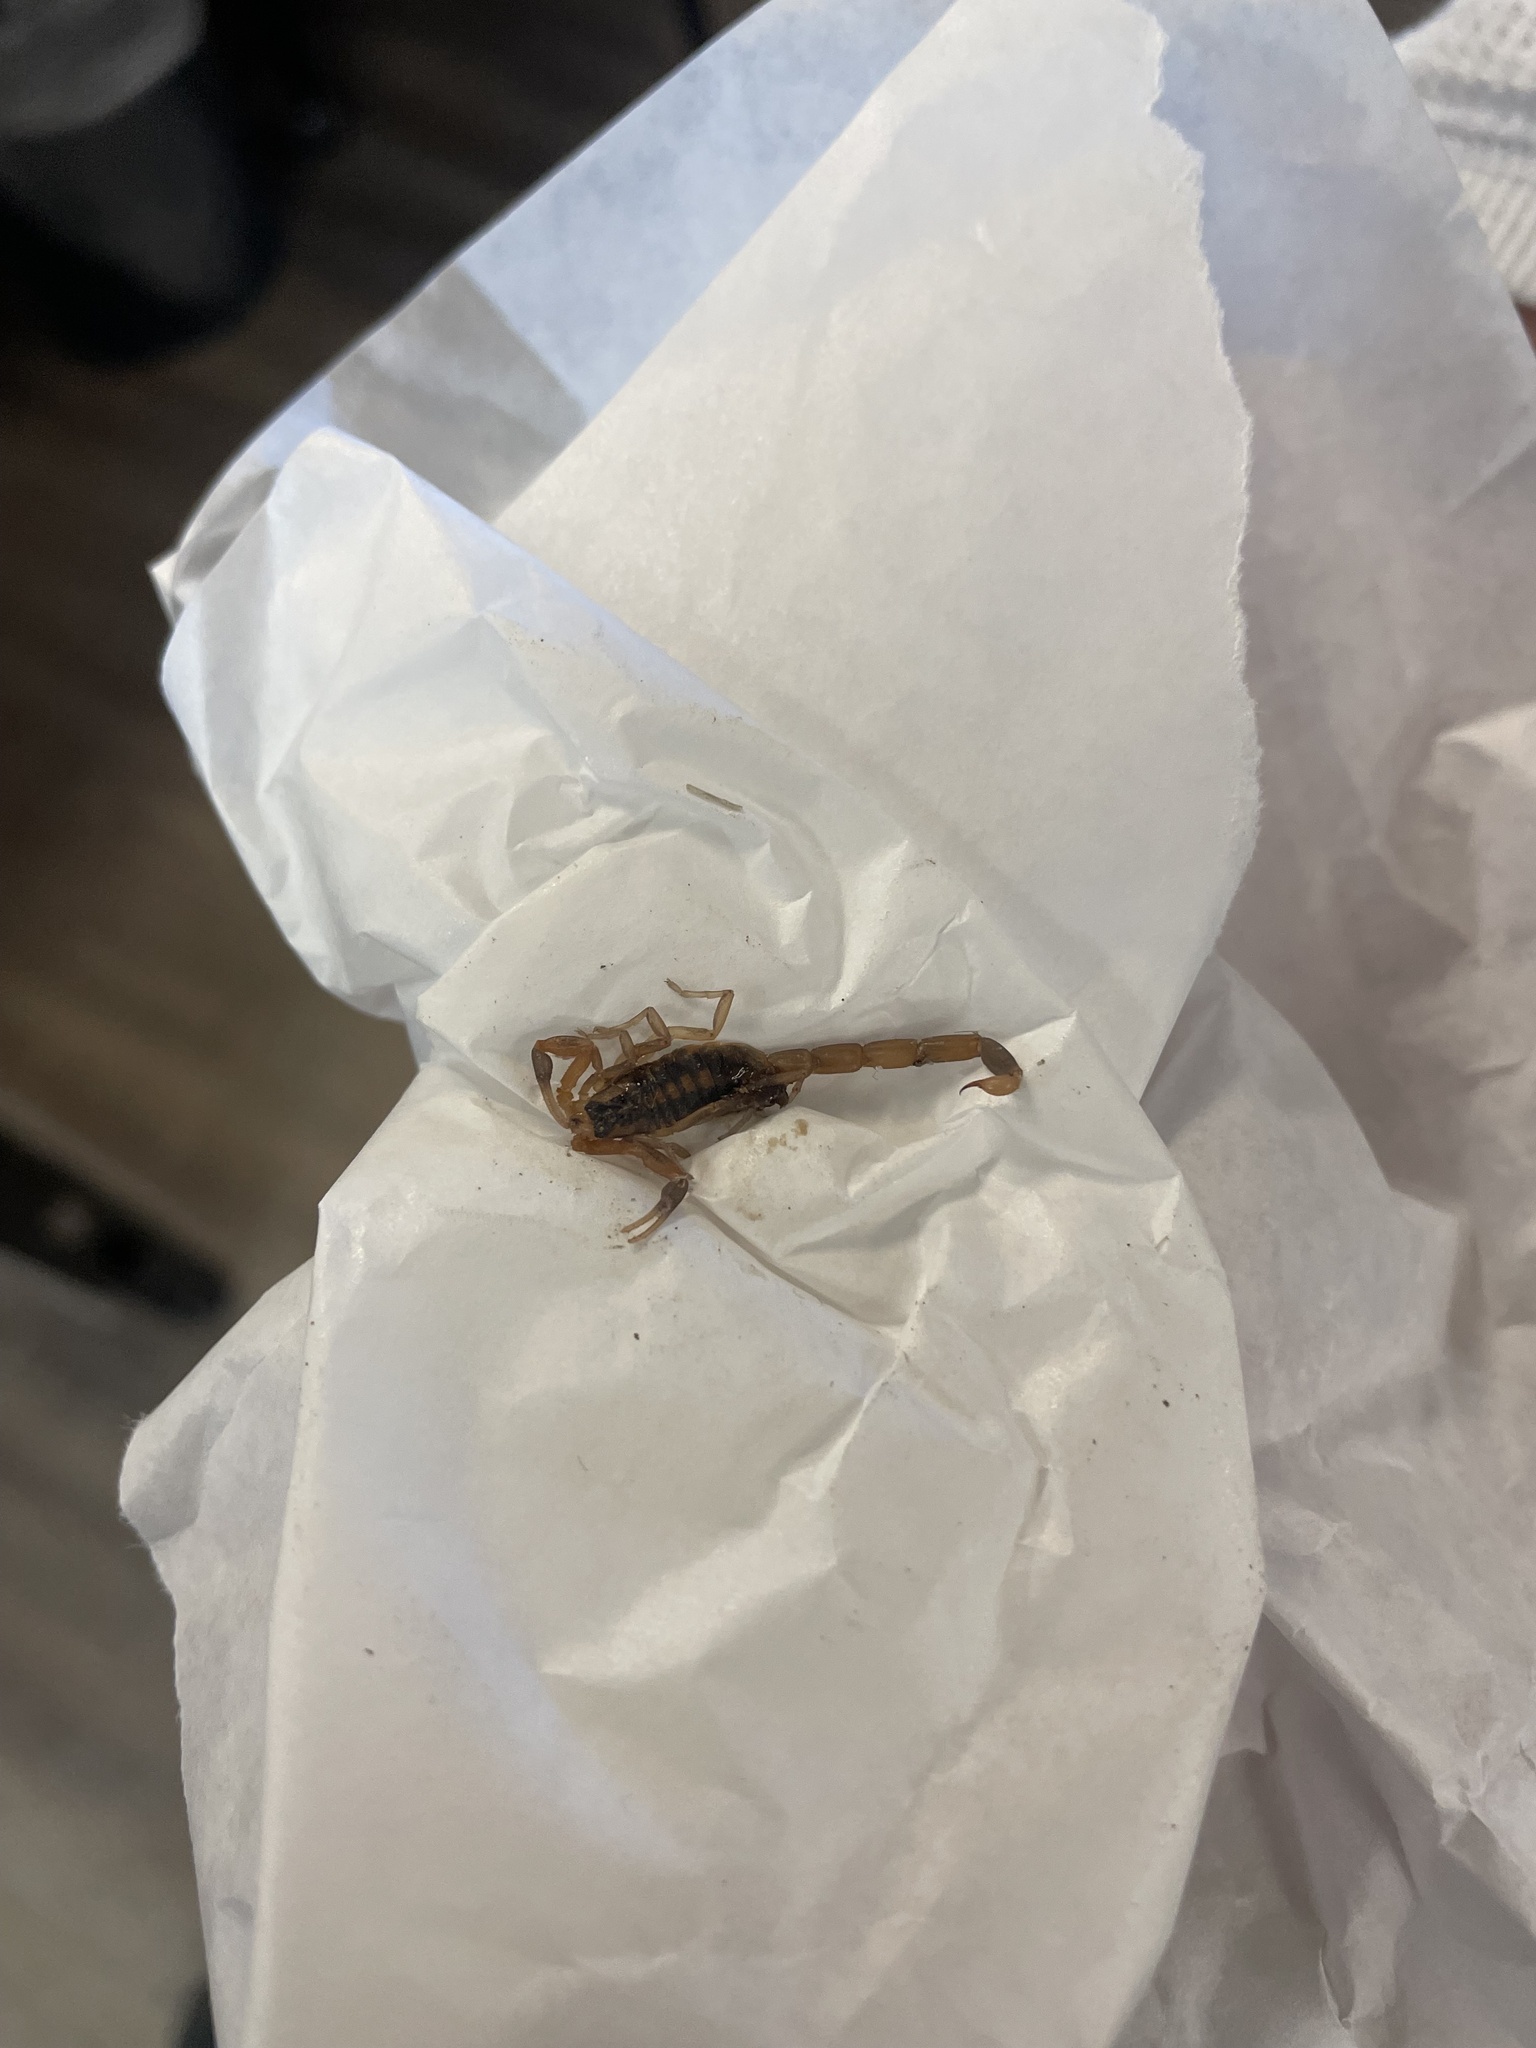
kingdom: Animalia
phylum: Arthropoda
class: Arachnida
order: Scorpiones
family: Buthidae
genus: Centruroides
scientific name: Centruroides vittatus
